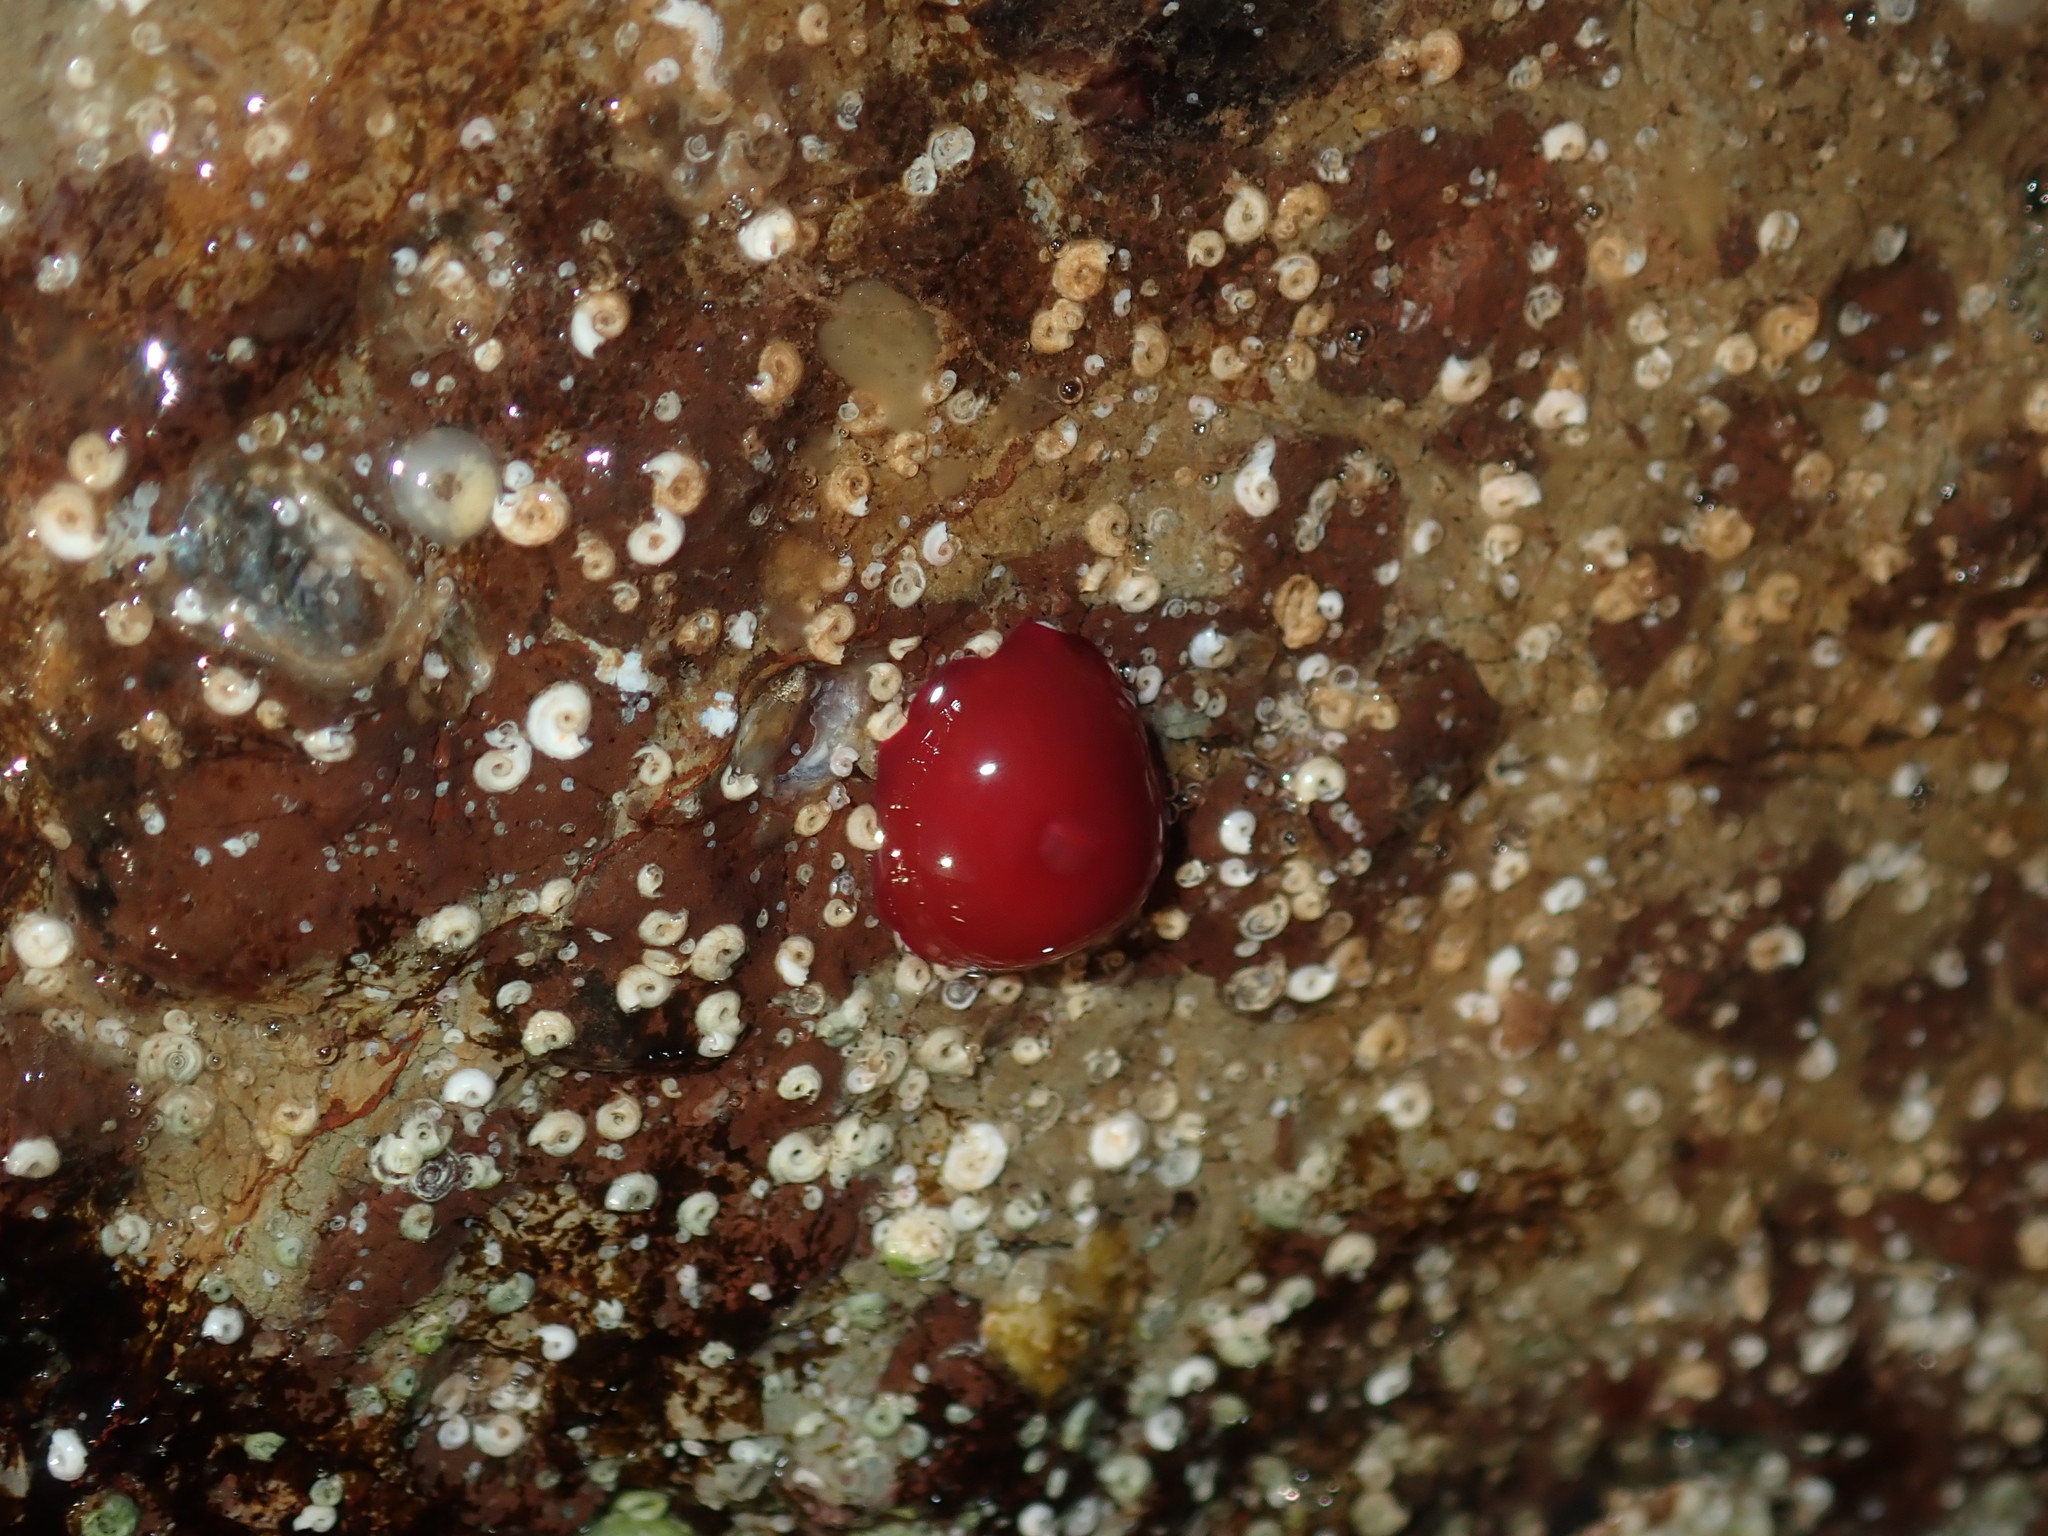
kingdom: Animalia
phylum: Cnidaria
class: Anthozoa
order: Actiniaria
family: Actiniidae
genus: Actinia
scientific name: Actinia tenebrosa
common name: Waratah anemone
